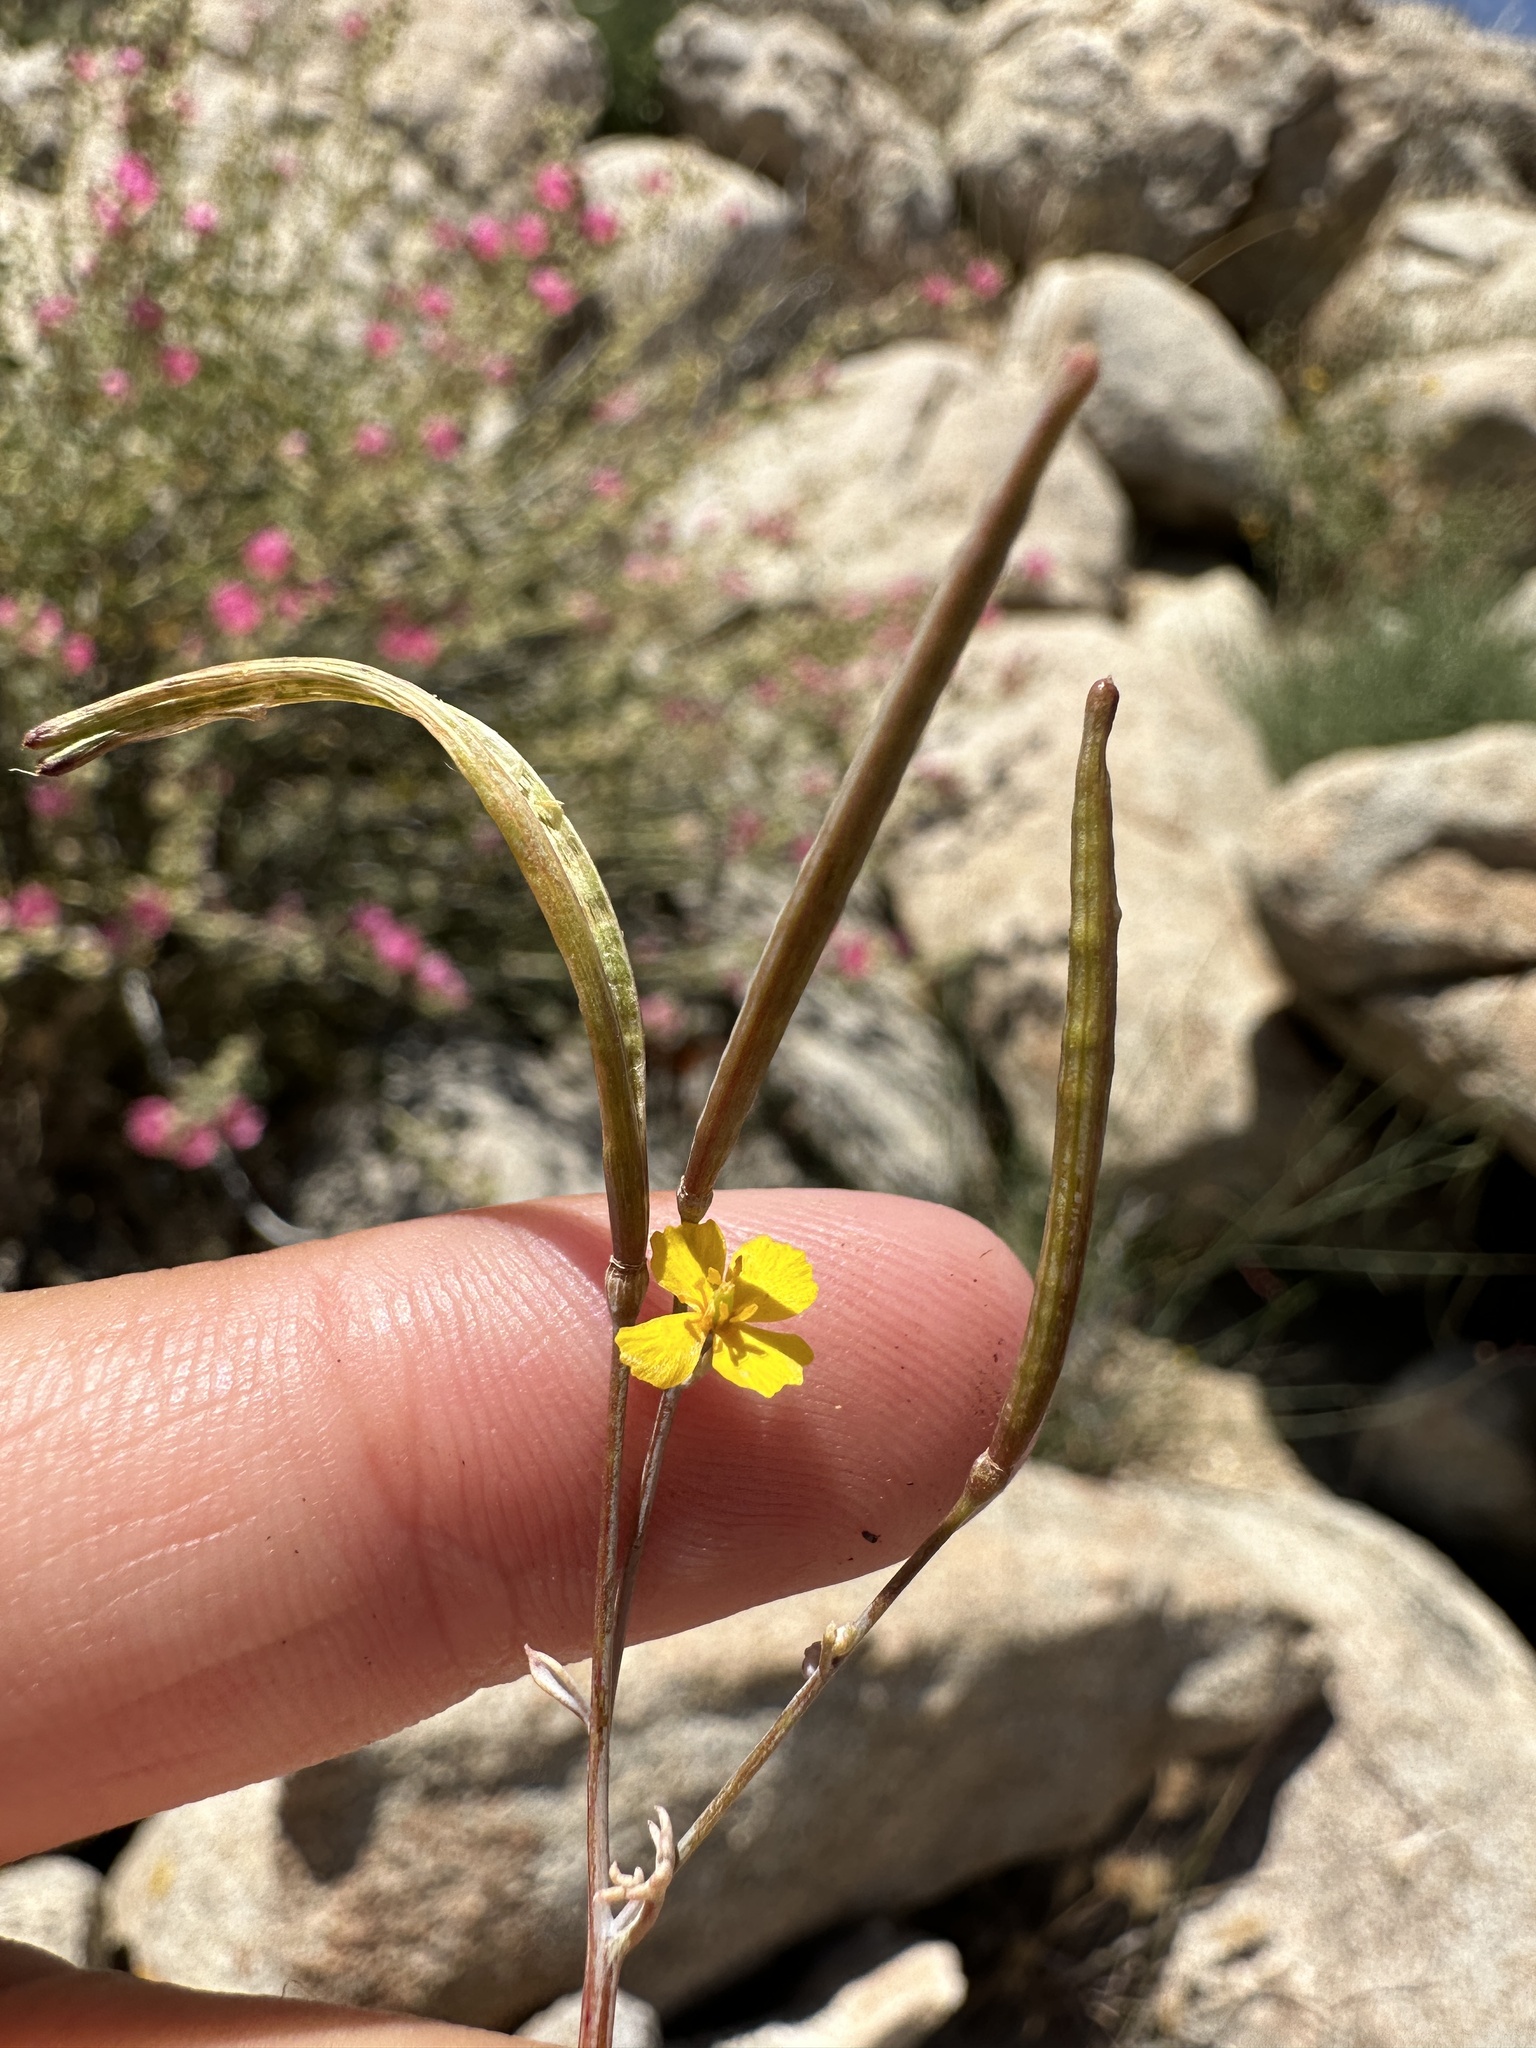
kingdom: Plantae
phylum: Tracheophyta
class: Magnoliopsida
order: Ranunculales
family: Papaveraceae
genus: Eschscholzia
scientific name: Eschscholzia minutiflora
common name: Small-flower california-poppy
